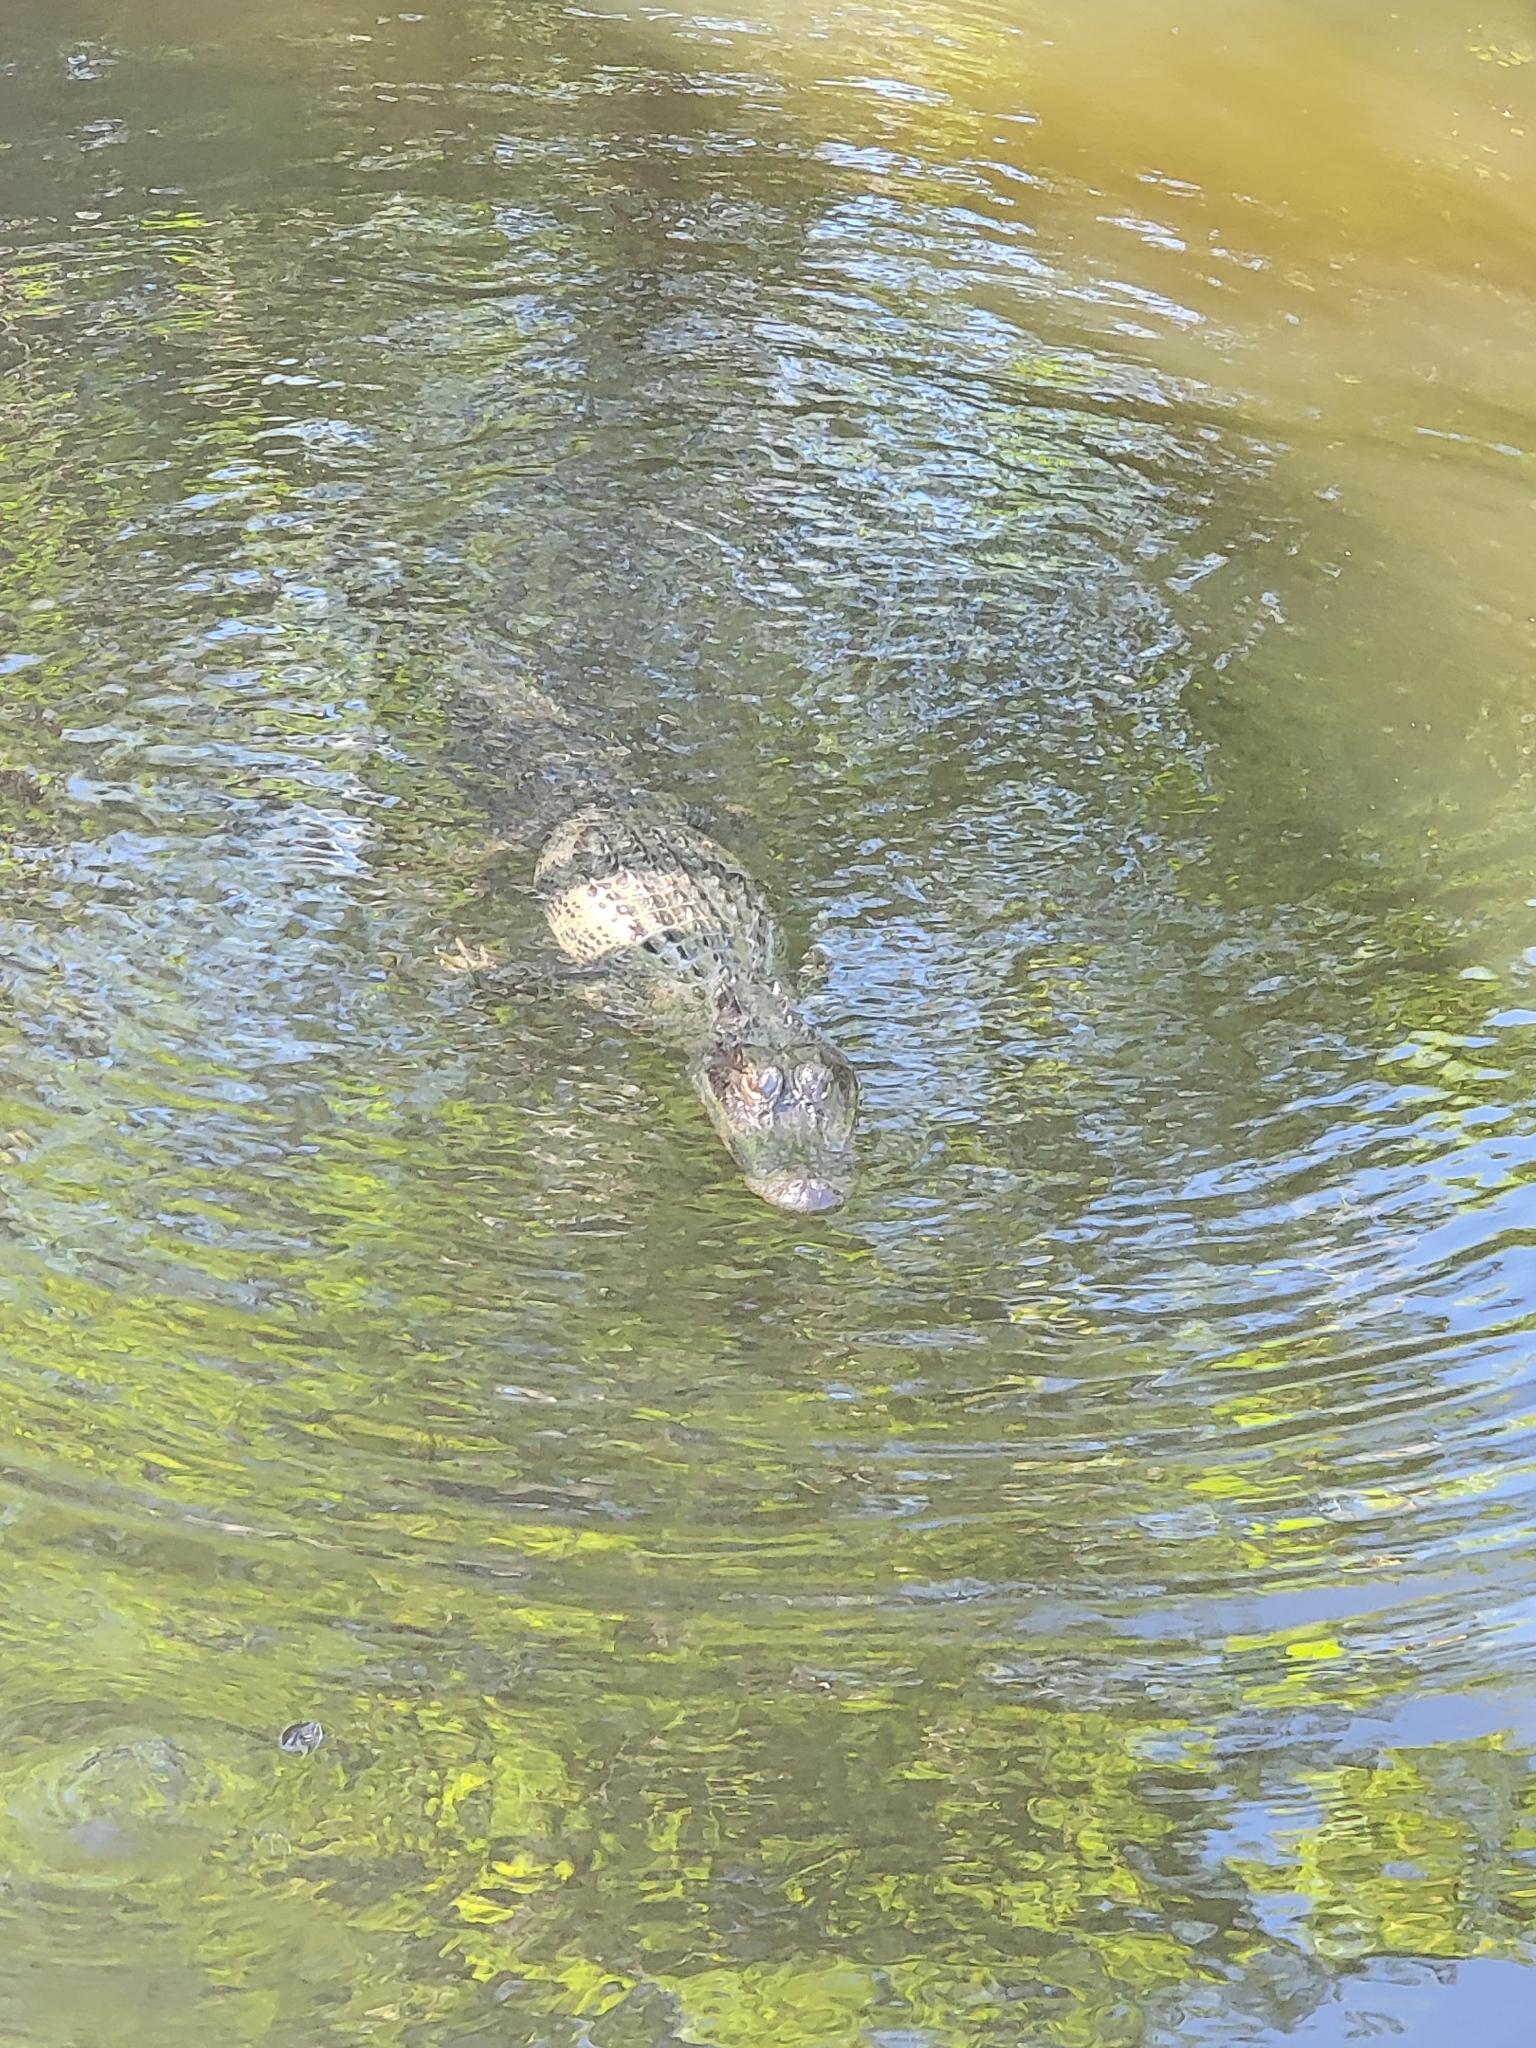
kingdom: Animalia
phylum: Chordata
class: Crocodylia
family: Alligatoridae
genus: Alligator
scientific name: Alligator mississippiensis
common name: American alligator
